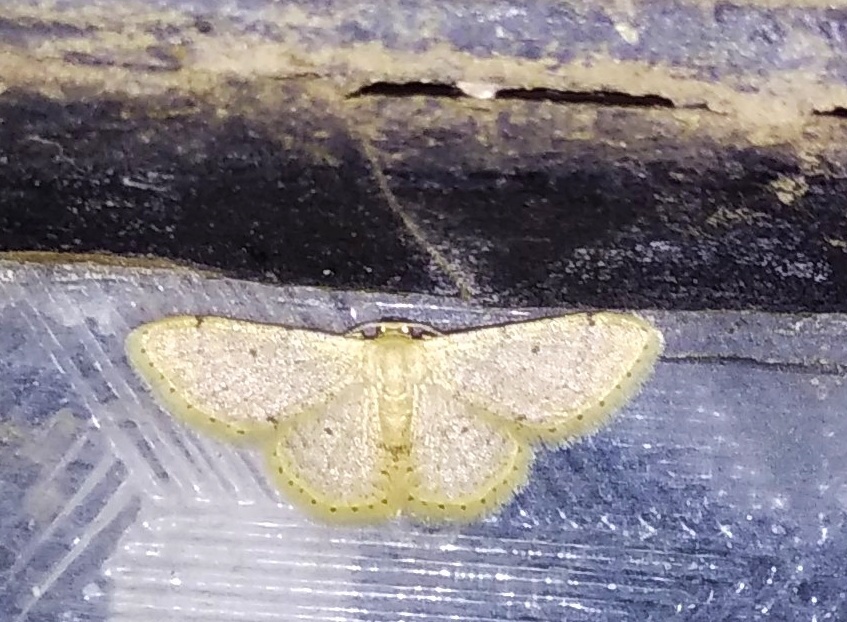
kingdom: Animalia
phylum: Arthropoda
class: Insecta
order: Lepidoptera
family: Geometridae
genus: Idaea
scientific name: Idaea ptyonopoda
